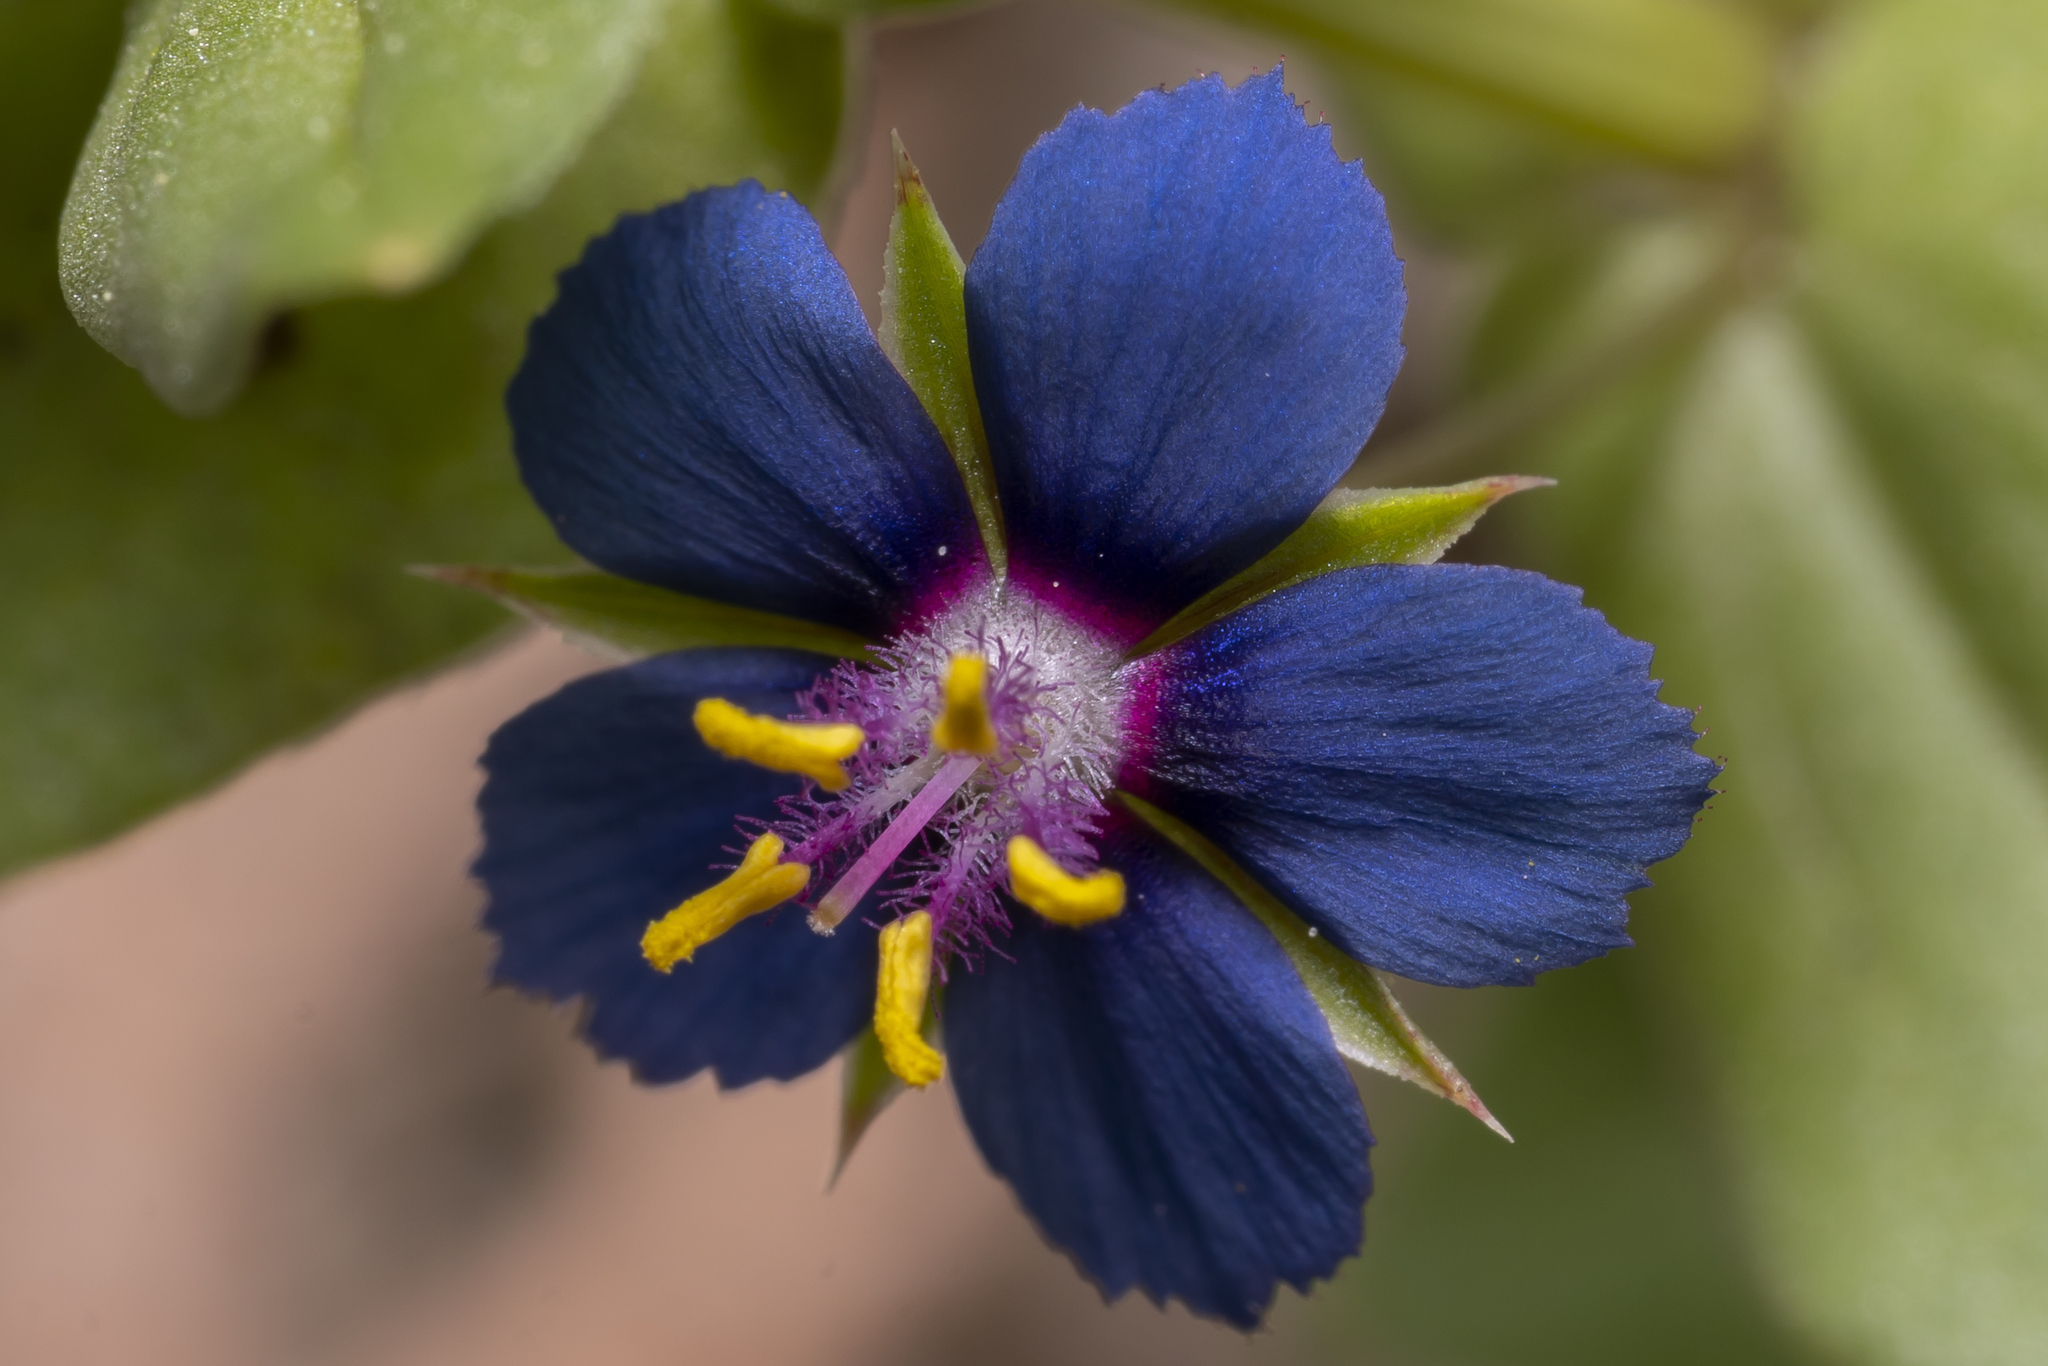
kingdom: Plantae
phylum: Tracheophyta
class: Magnoliopsida
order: Ericales
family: Primulaceae
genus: Lysimachia
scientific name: Lysimachia foemina
